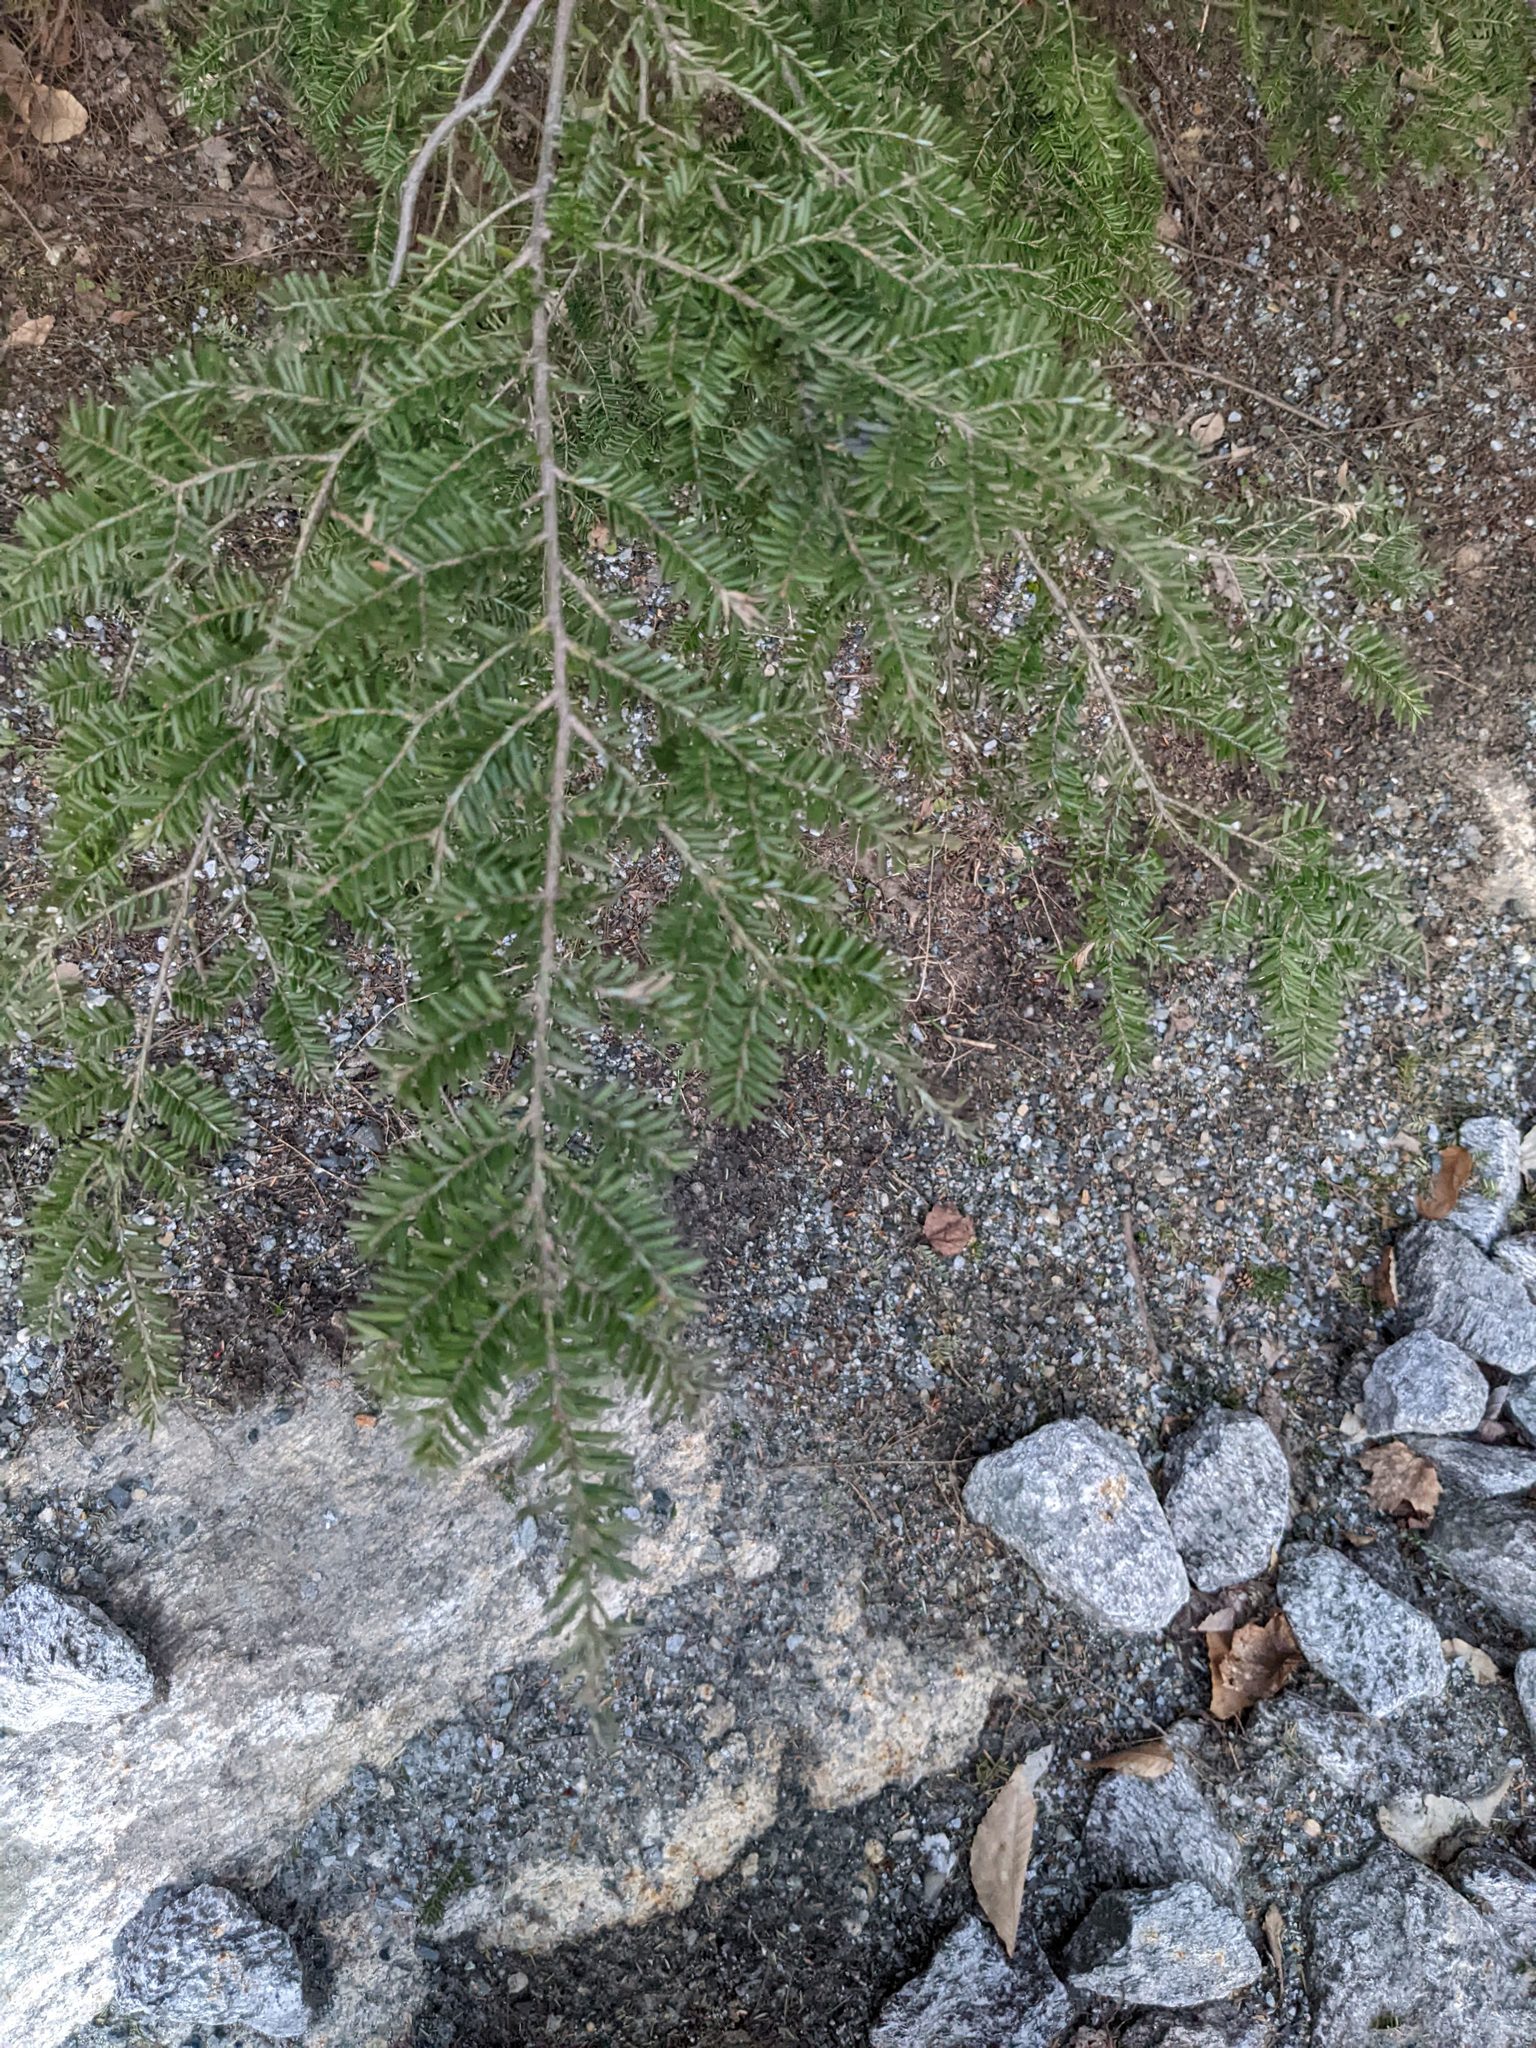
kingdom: Plantae
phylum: Tracheophyta
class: Pinopsida
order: Pinales
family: Pinaceae
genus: Tsuga
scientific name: Tsuga canadensis
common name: Eastern hemlock
